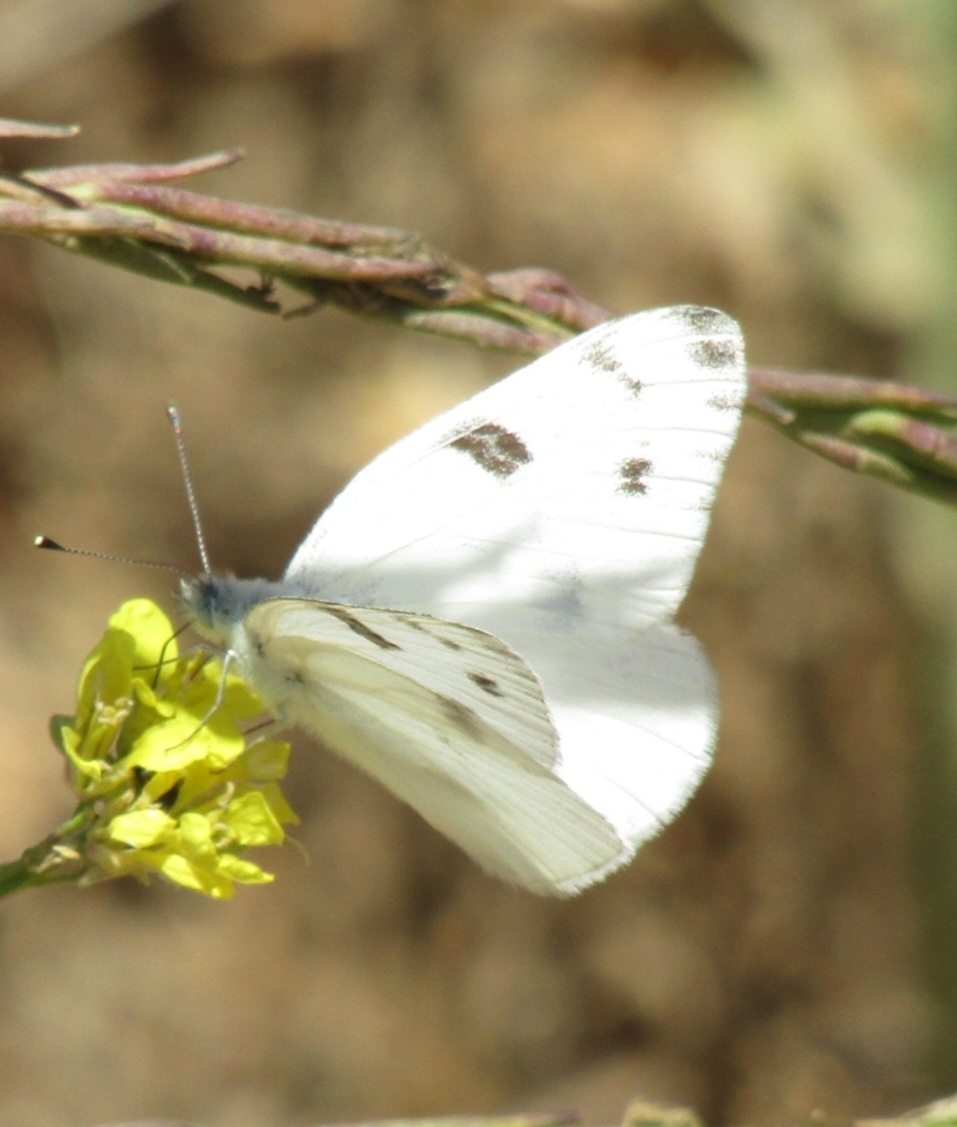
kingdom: Animalia
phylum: Arthropoda
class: Insecta
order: Lepidoptera
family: Pieridae
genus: Pontia
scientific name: Pontia protodice
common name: Checkered white
